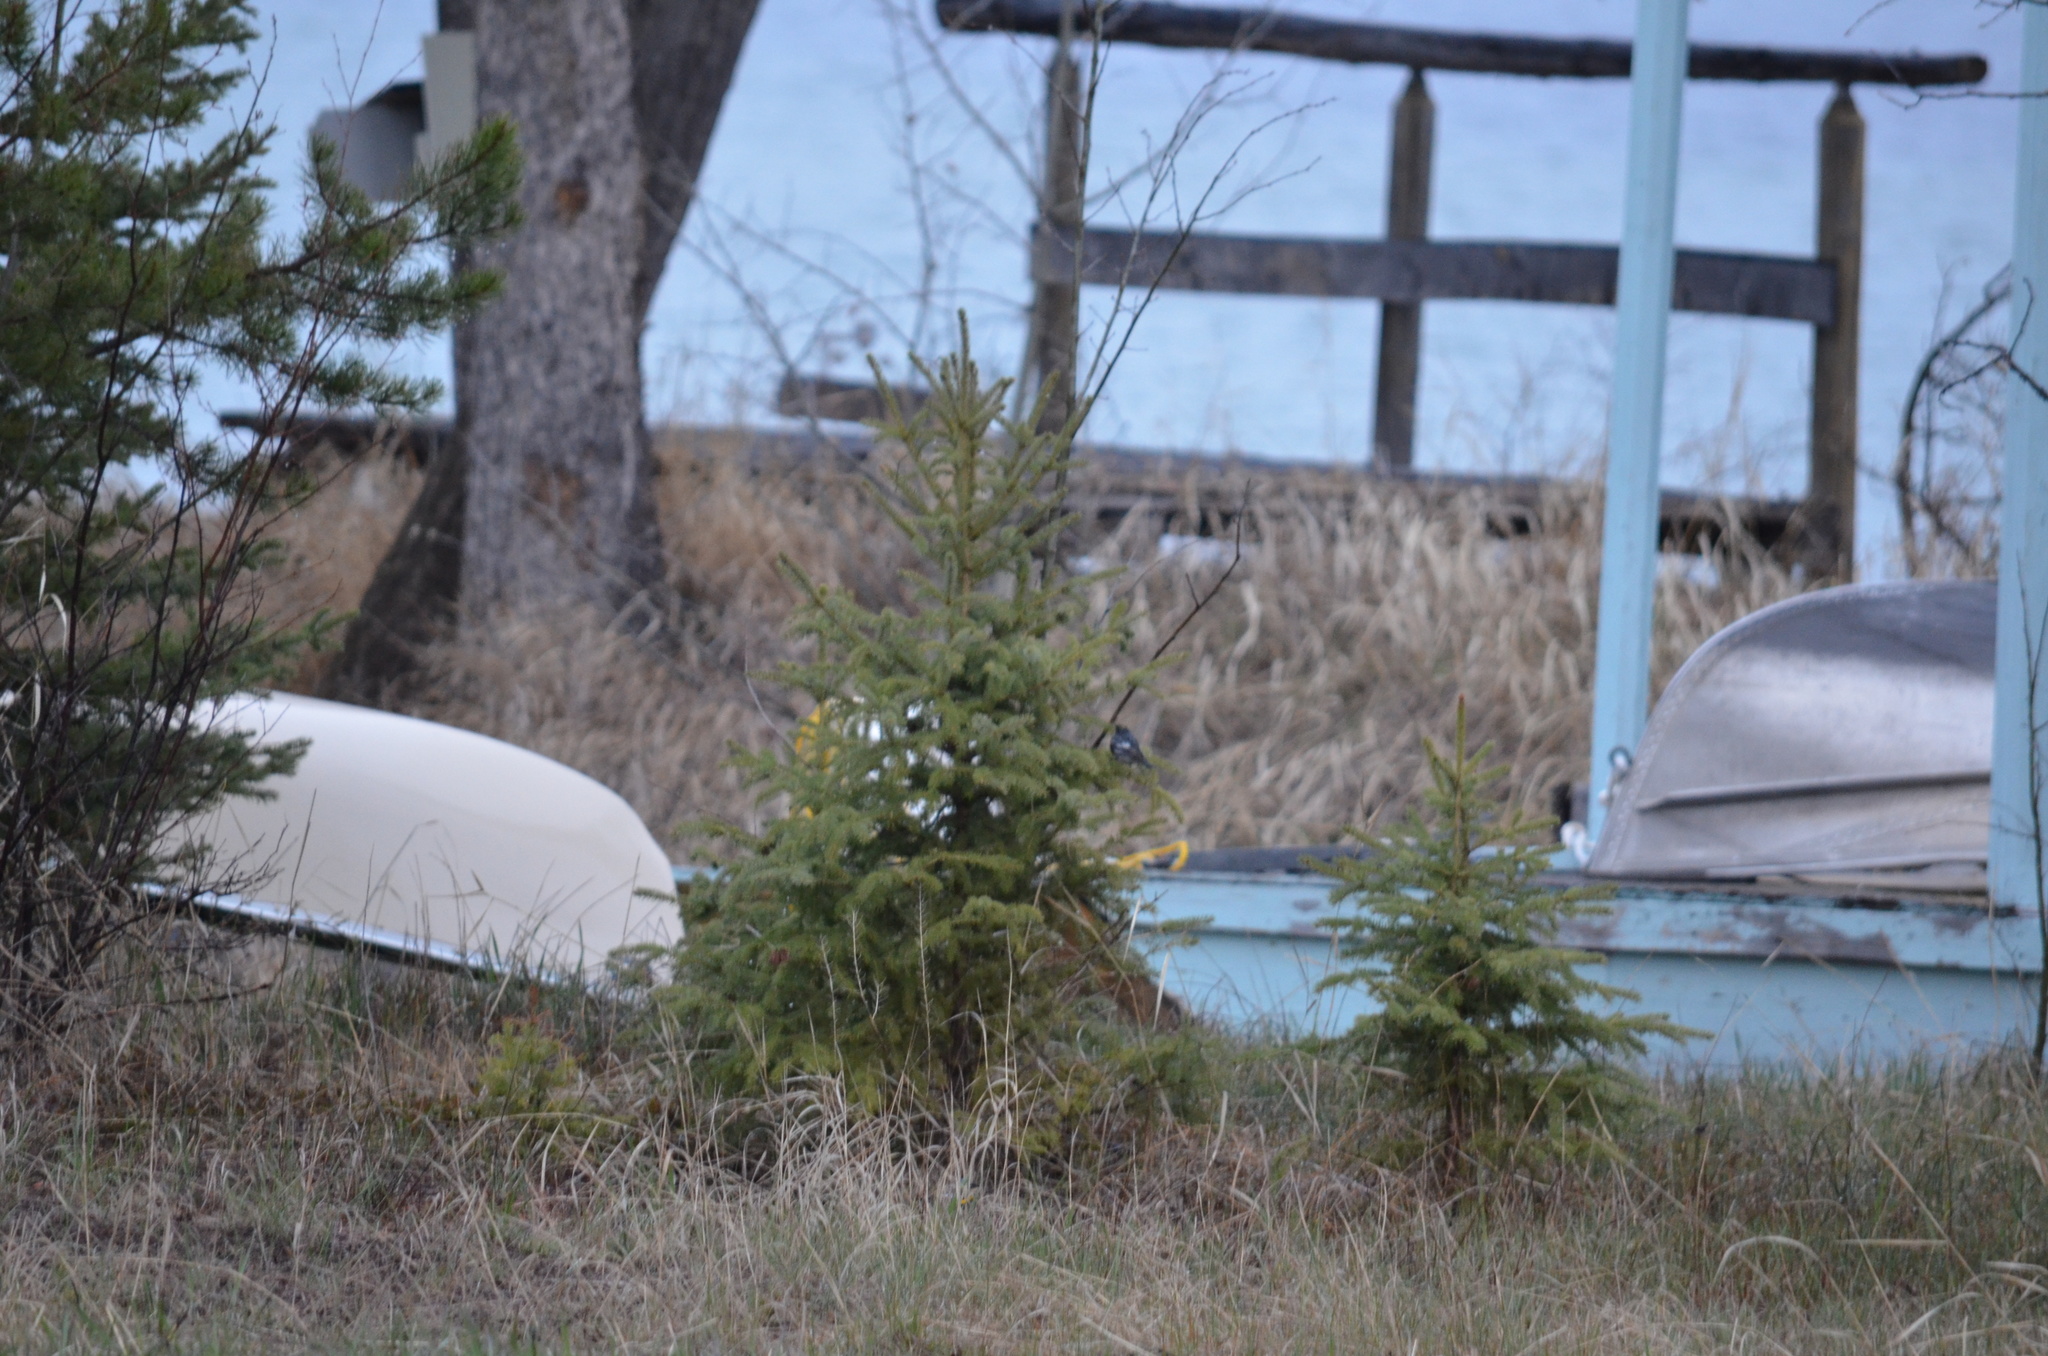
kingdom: Animalia
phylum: Chordata
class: Aves
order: Passeriformes
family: Parulidae
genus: Setophaga
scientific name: Setophaga coronata
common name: Myrtle warbler
